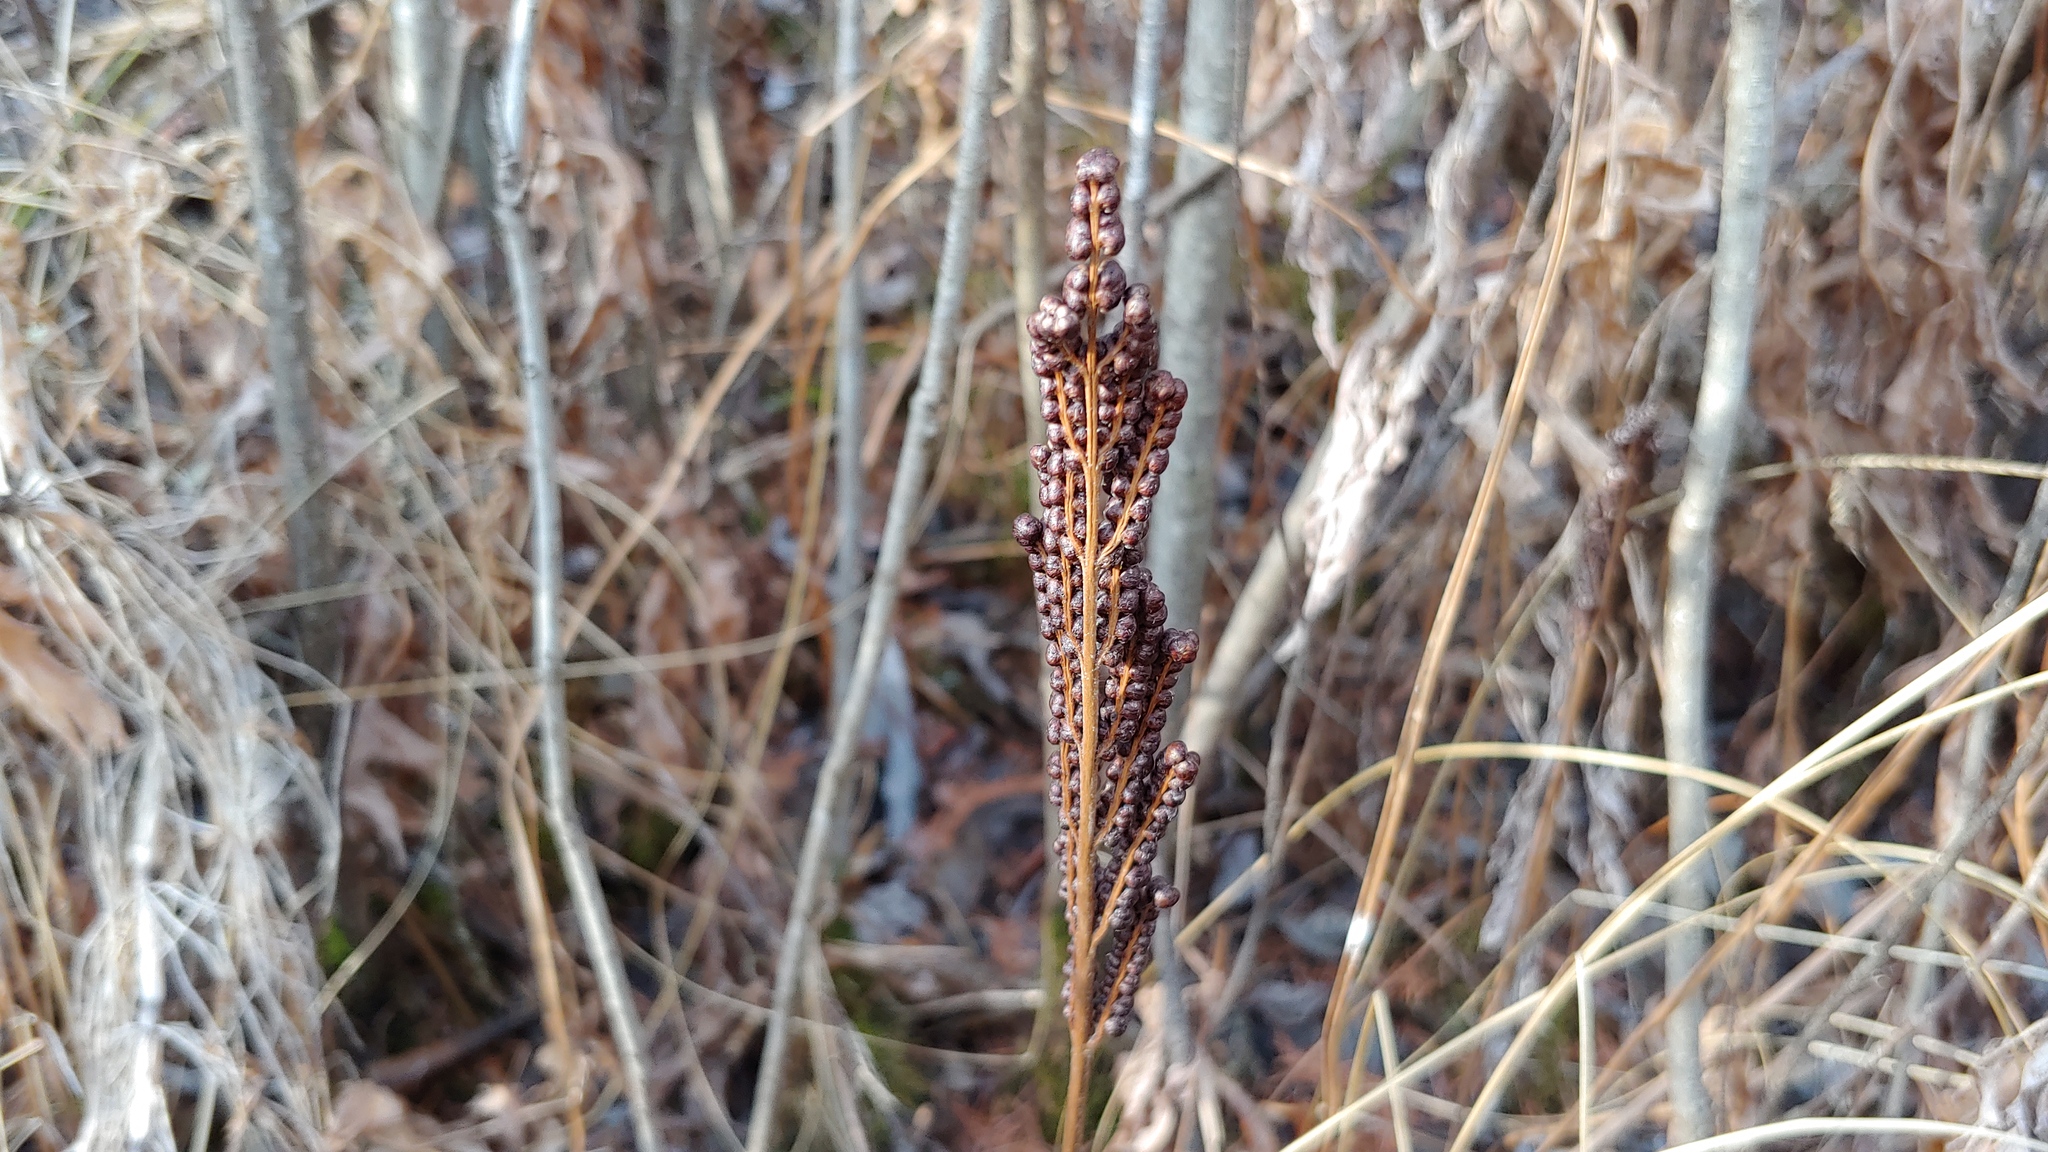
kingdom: Plantae
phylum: Tracheophyta
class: Polypodiopsida
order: Polypodiales
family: Onocleaceae
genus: Onoclea
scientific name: Onoclea sensibilis
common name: Sensitive fern
